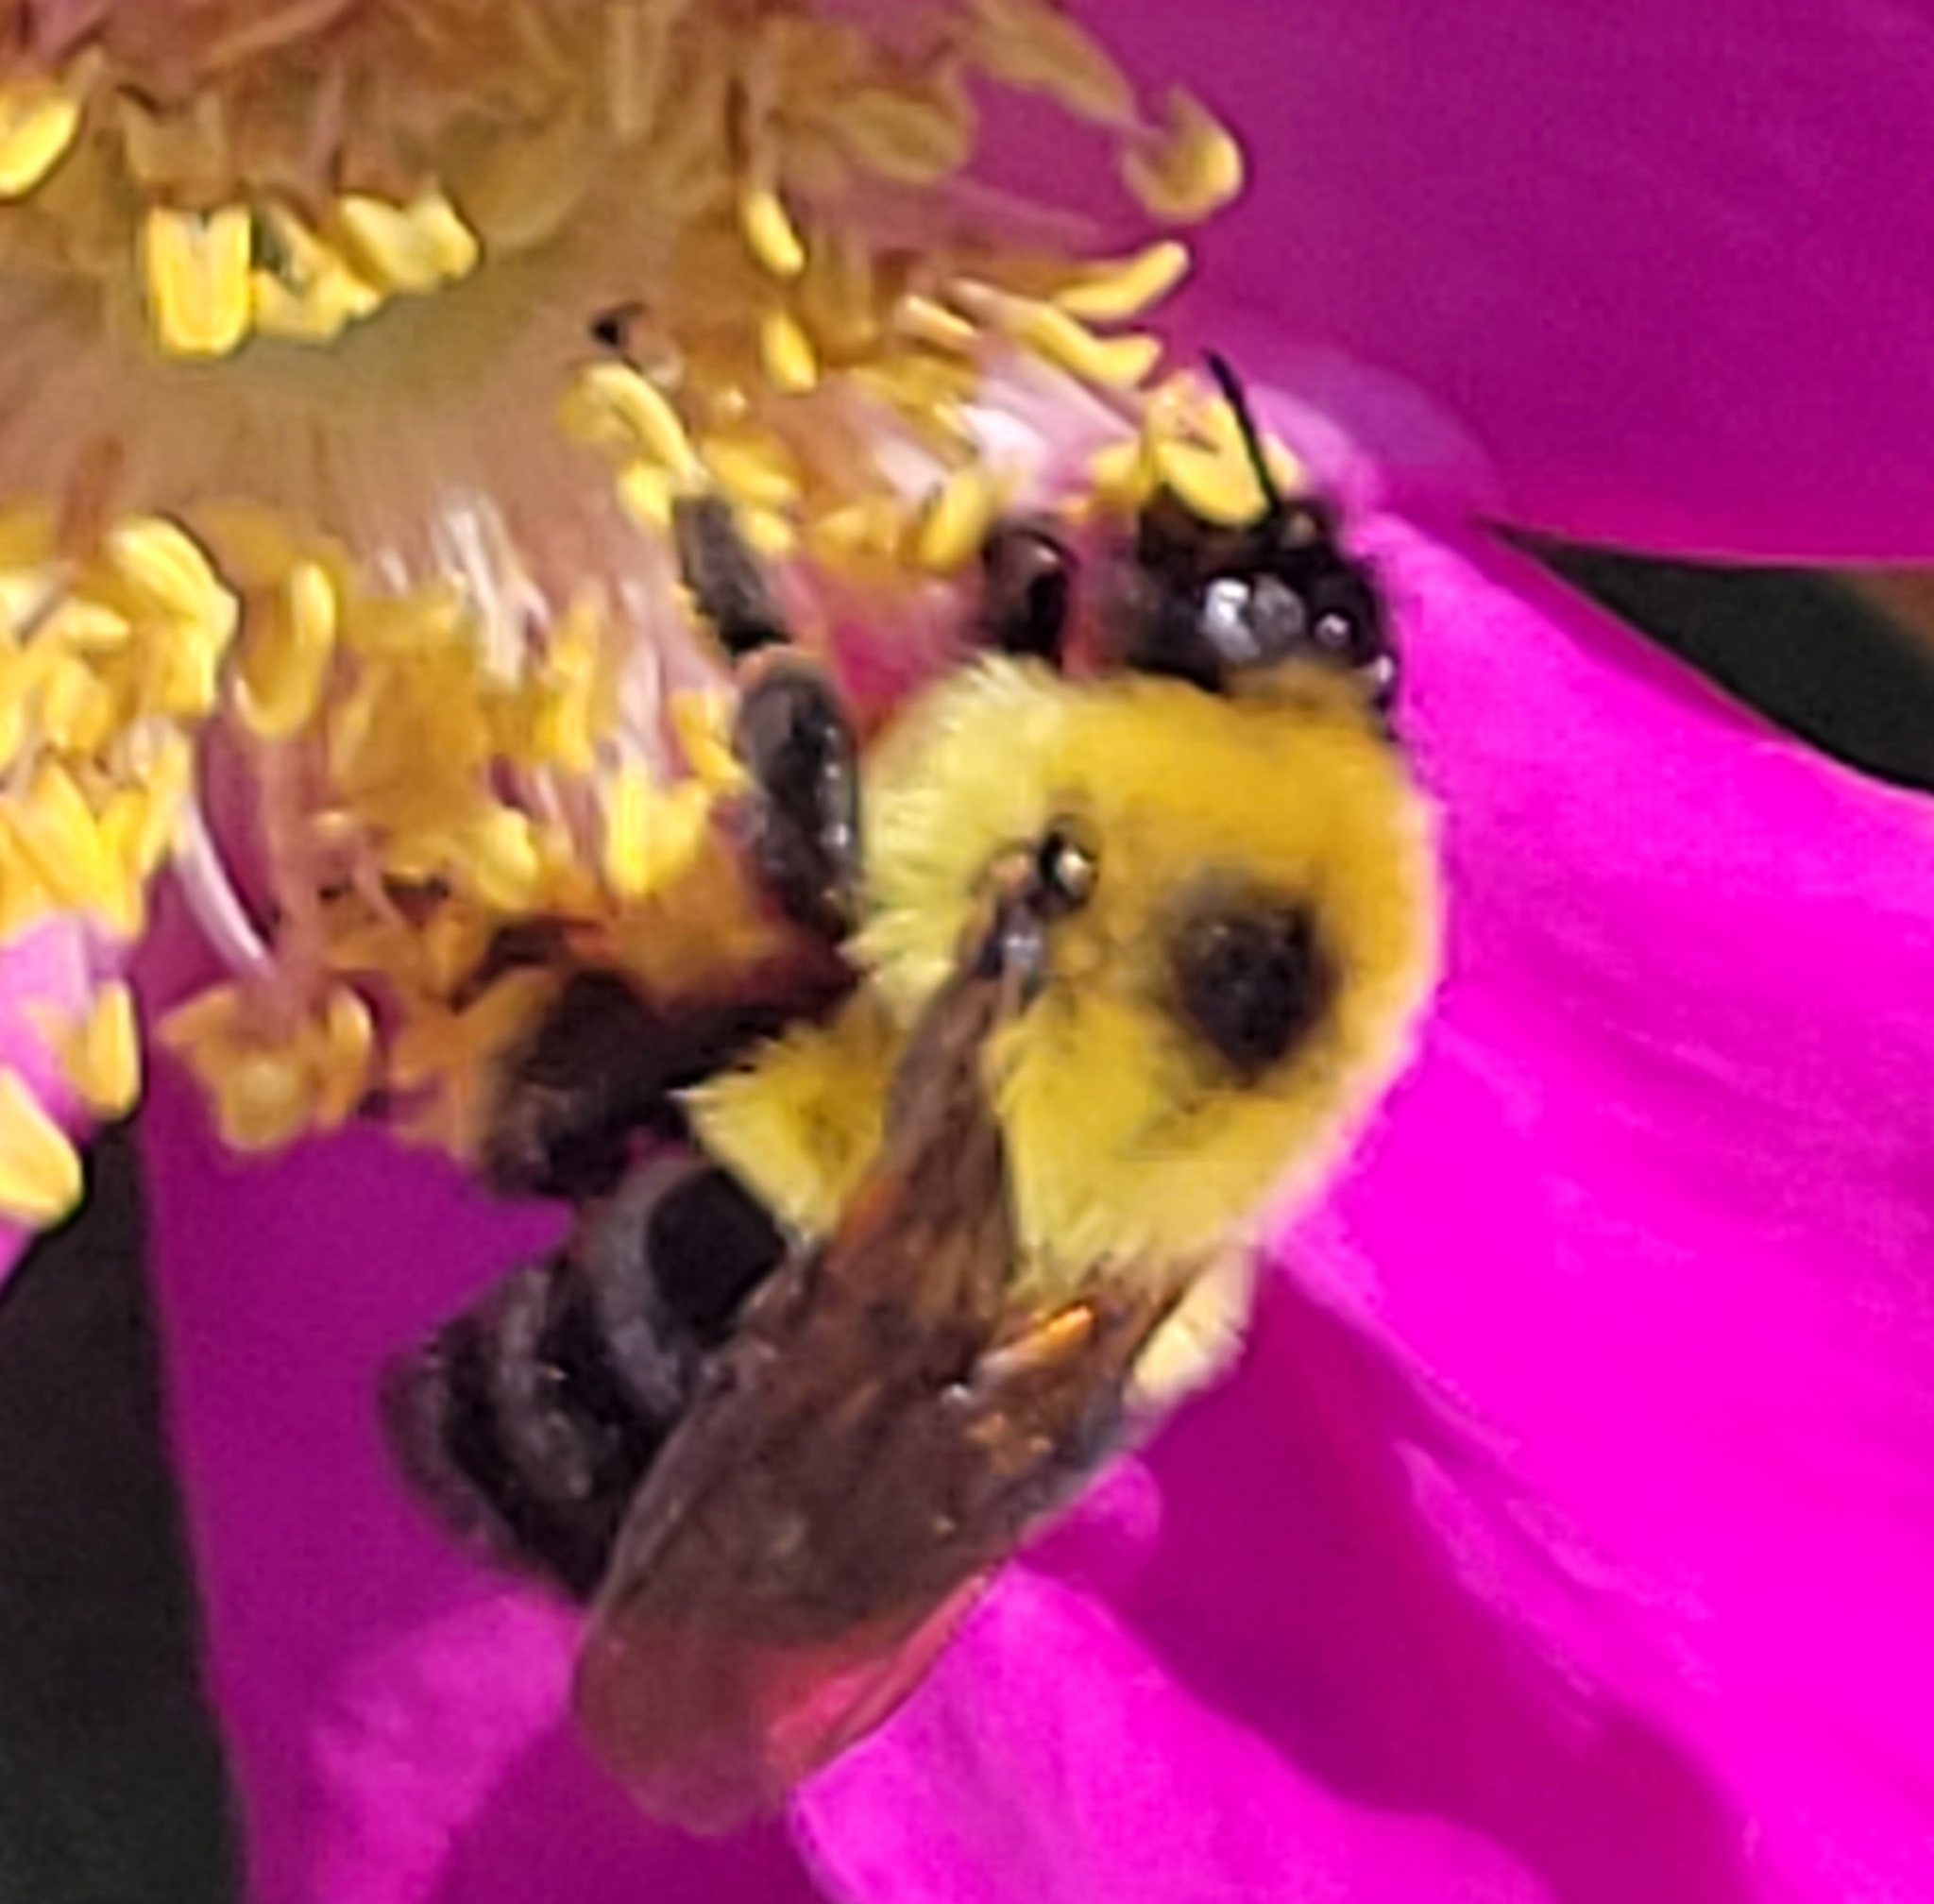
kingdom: Animalia
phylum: Arthropoda
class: Insecta
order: Hymenoptera
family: Apidae
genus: Bombus
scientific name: Bombus bimaculatus
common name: Two-spotted bumble bee
